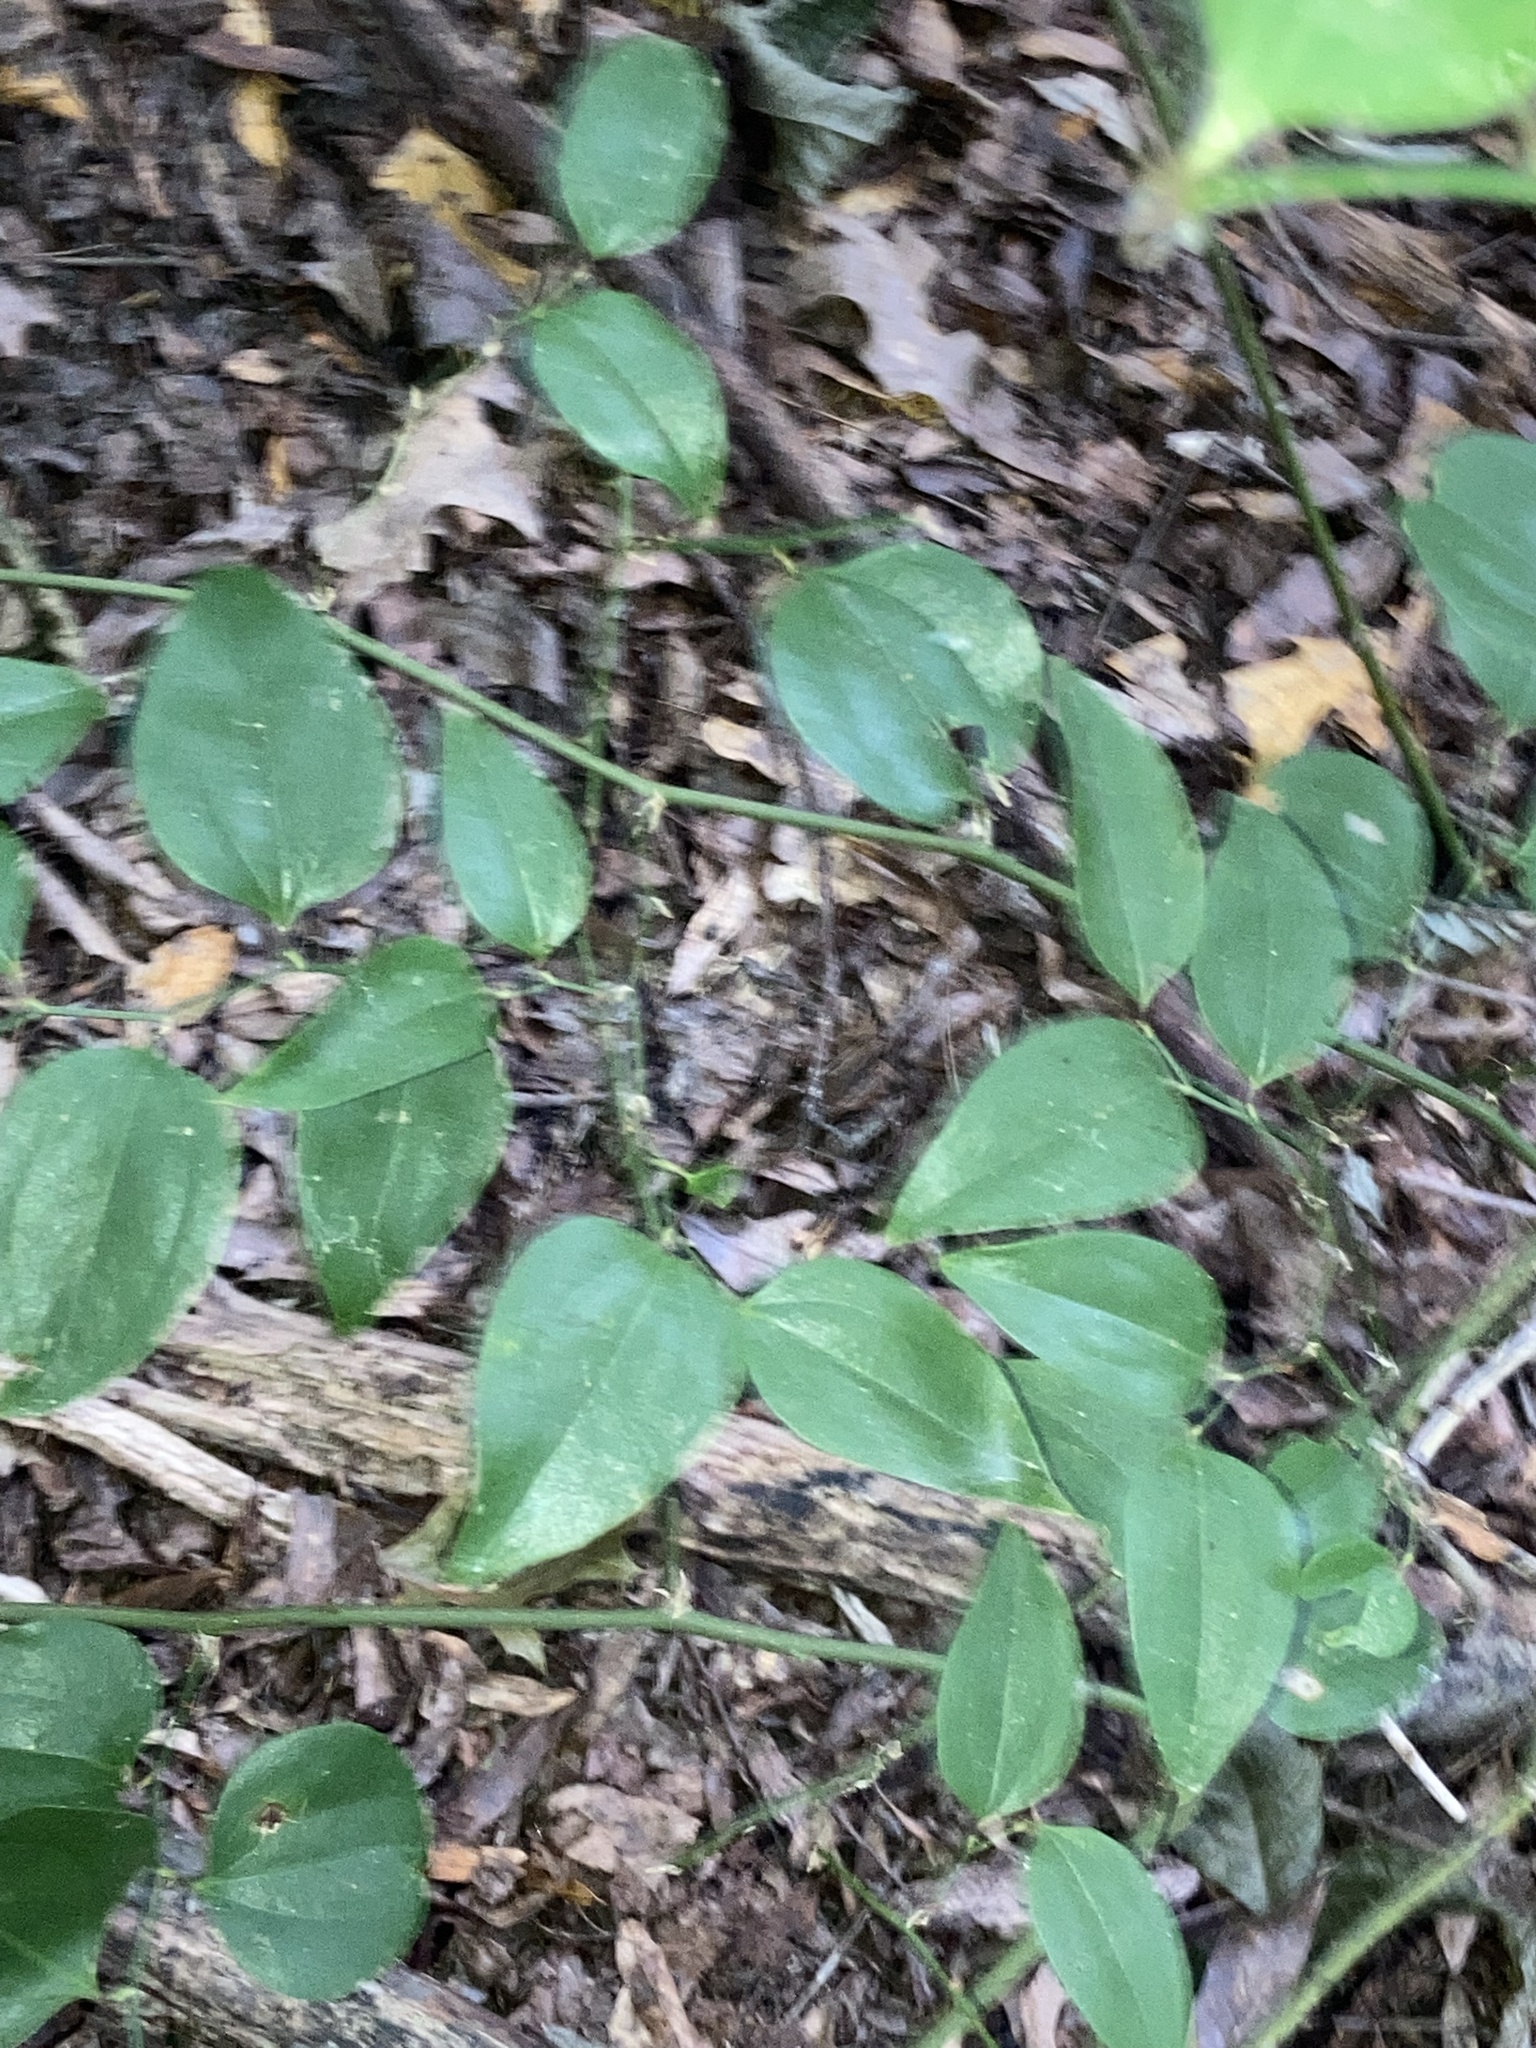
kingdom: Plantae
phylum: Tracheophyta
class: Liliopsida
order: Liliales
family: Smilacaceae
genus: Smilax
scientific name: Smilax rotundifolia
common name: Bullbriar
